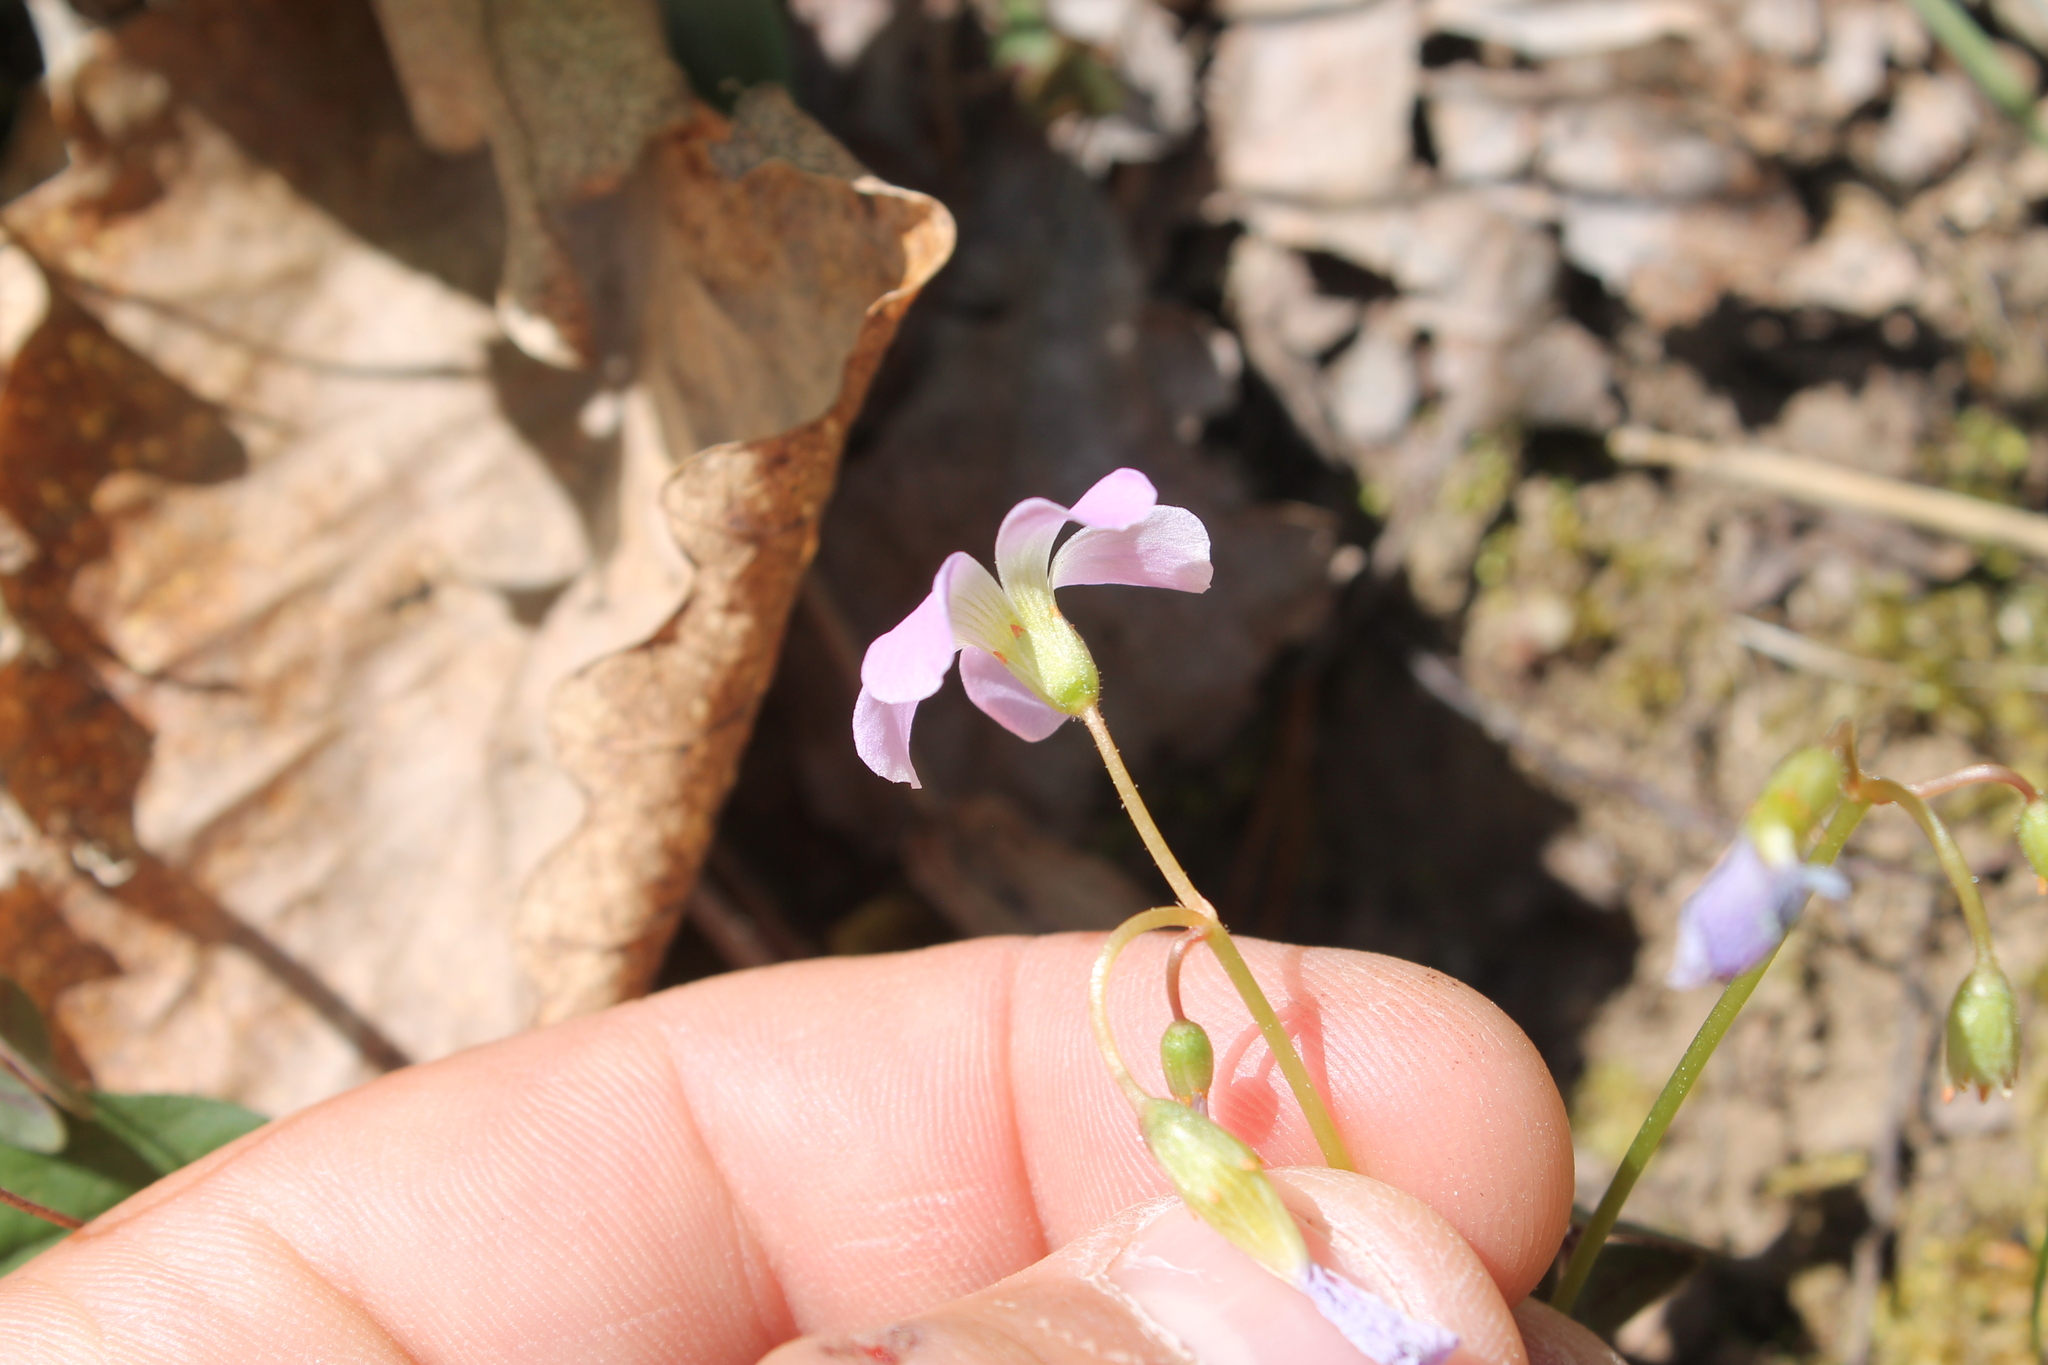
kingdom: Plantae
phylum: Tracheophyta
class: Magnoliopsida
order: Oxalidales
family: Oxalidaceae
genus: Oxalis
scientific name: Oxalis violacea
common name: Violet wood-sorrel
